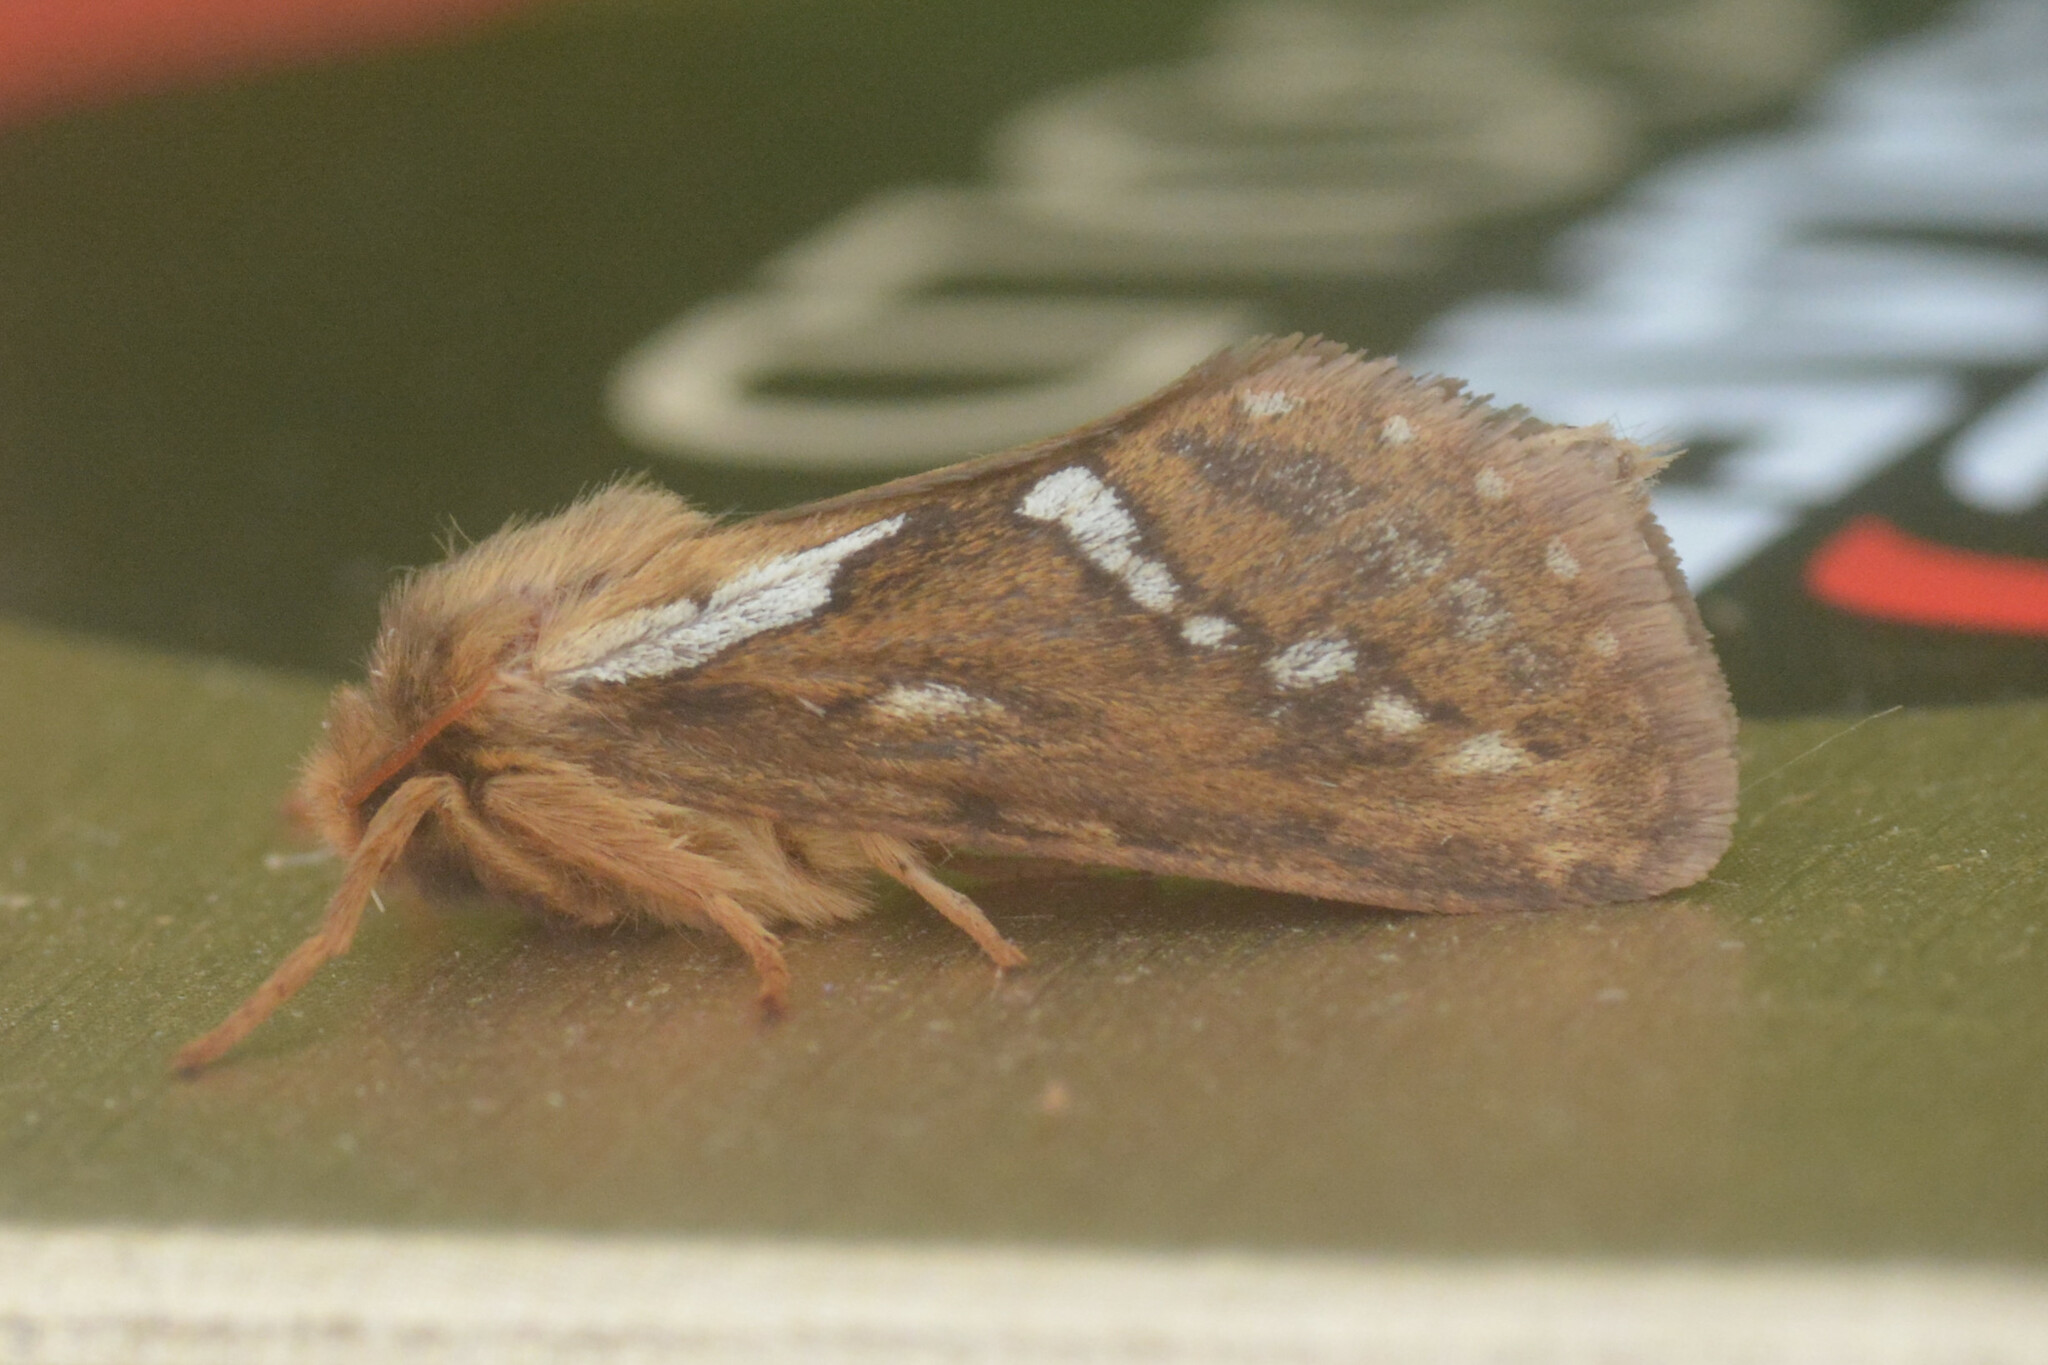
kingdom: Animalia
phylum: Arthropoda
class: Insecta
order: Lepidoptera
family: Hepialidae
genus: Korscheltellus
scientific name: Korscheltellus lupulina
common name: Common swift
